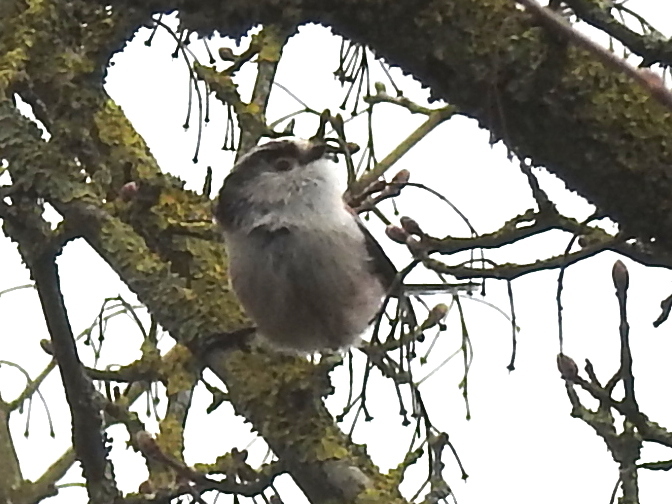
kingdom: Animalia
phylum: Chordata
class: Aves
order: Passeriformes
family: Aegithalidae
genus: Aegithalos
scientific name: Aegithalos caudatus
